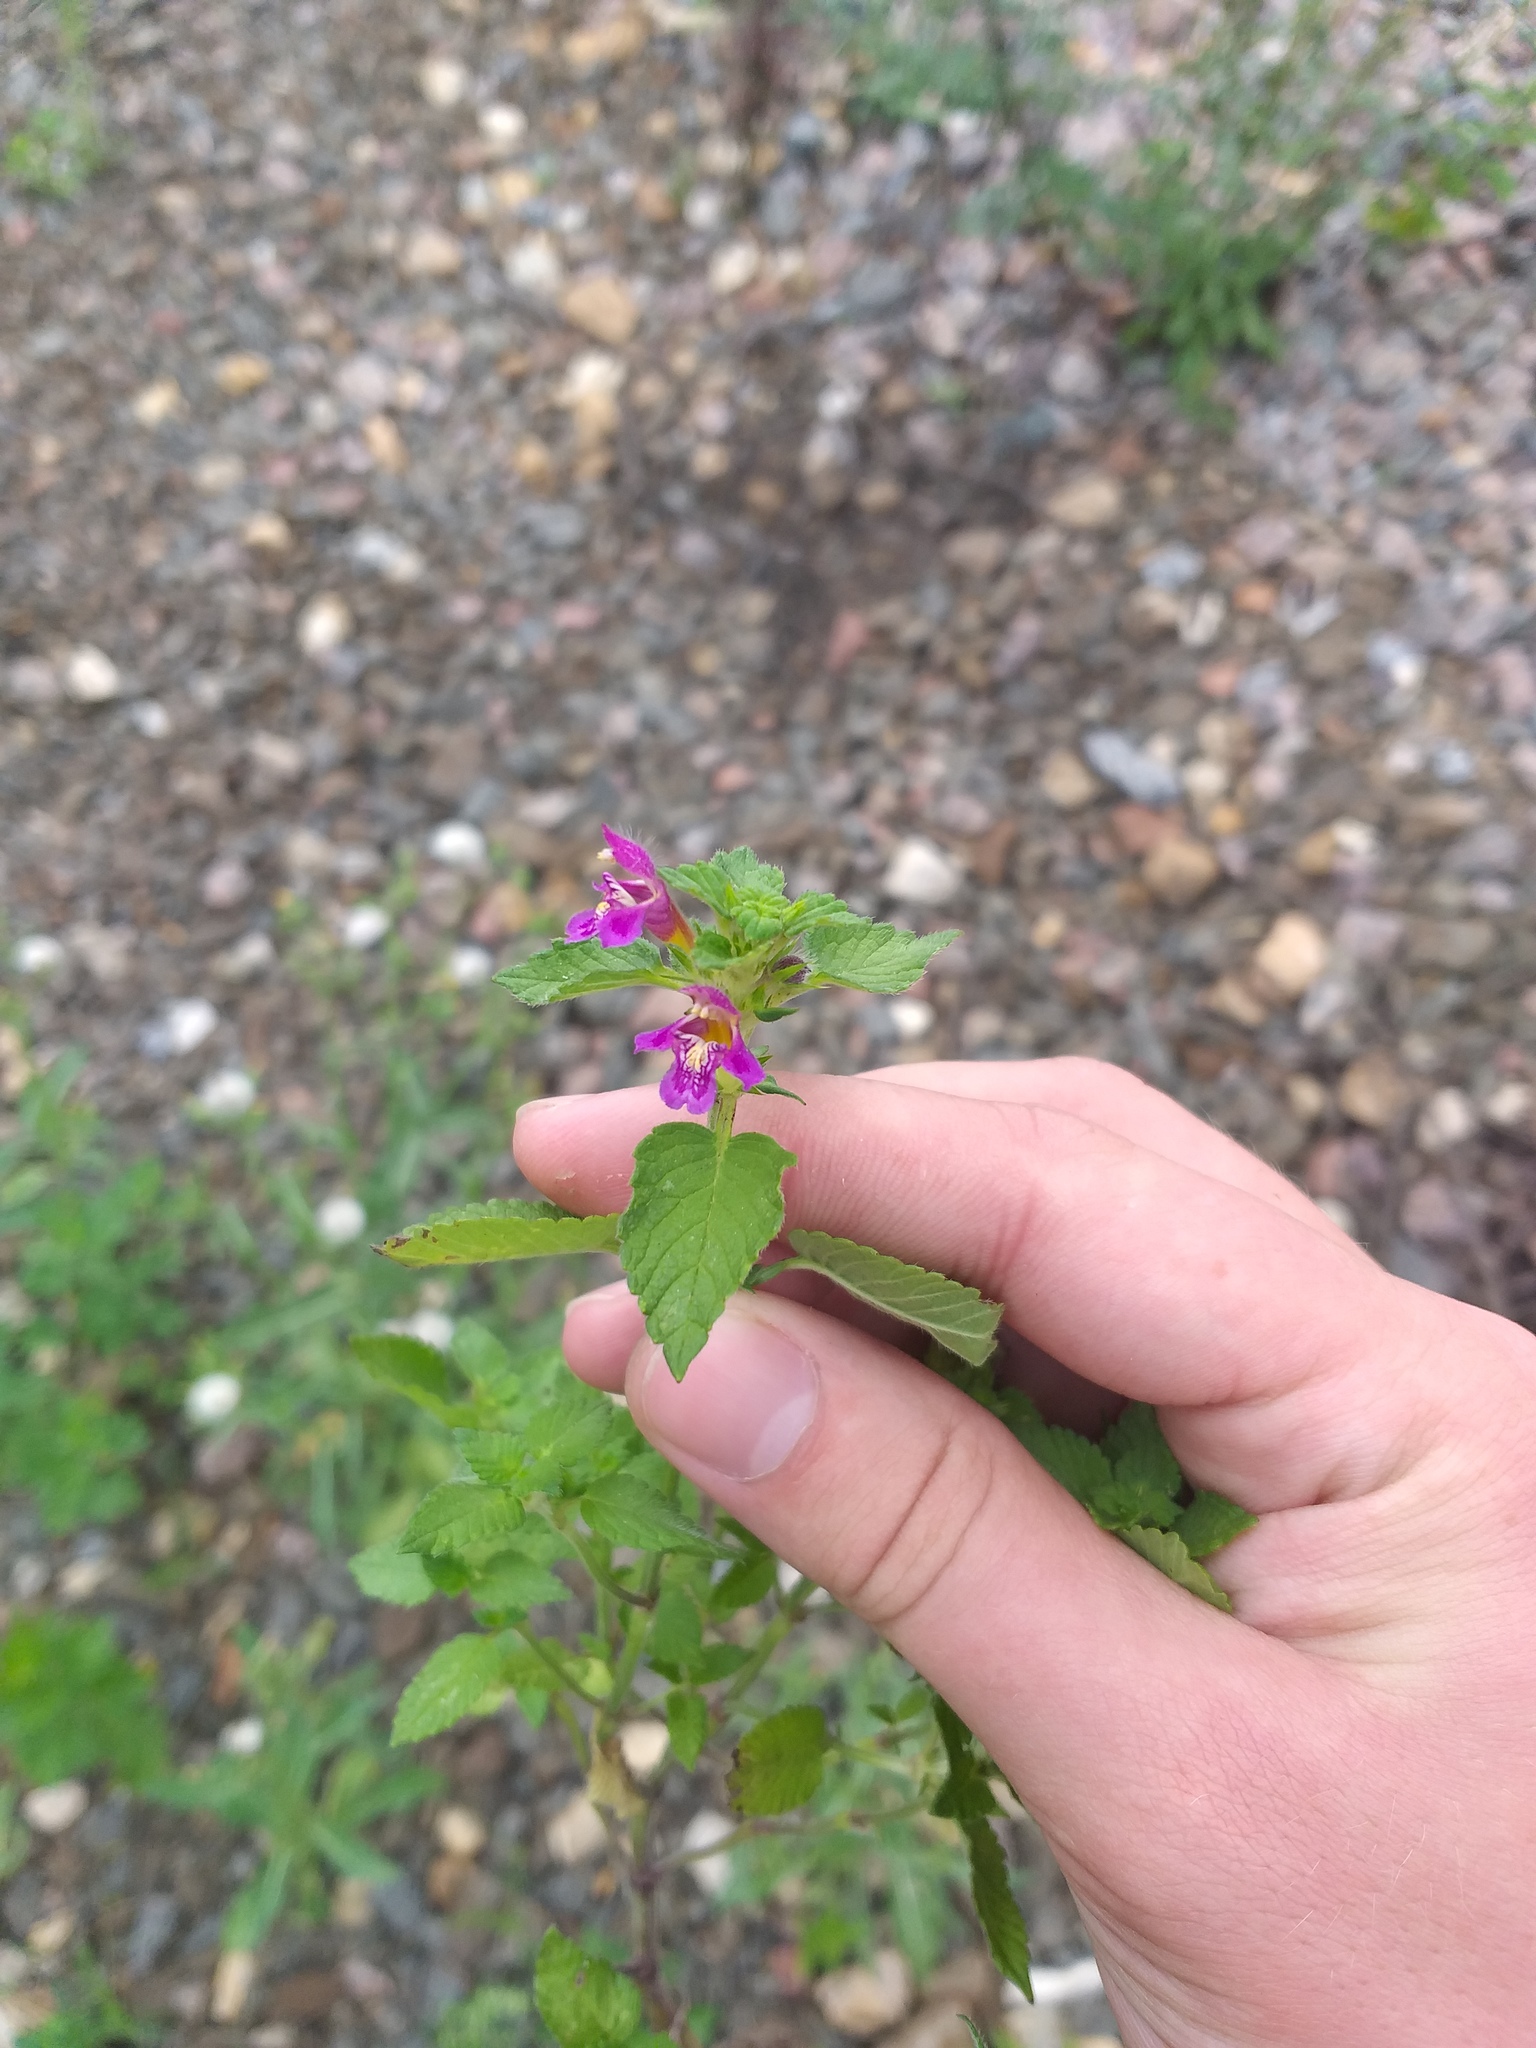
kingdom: Plantae
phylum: Tracheophyta
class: Magnoliopsida
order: Lamiales
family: Lamiaceae
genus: Galeopsis
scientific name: Galeopsis pubescens
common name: Downy hemp-nettle
